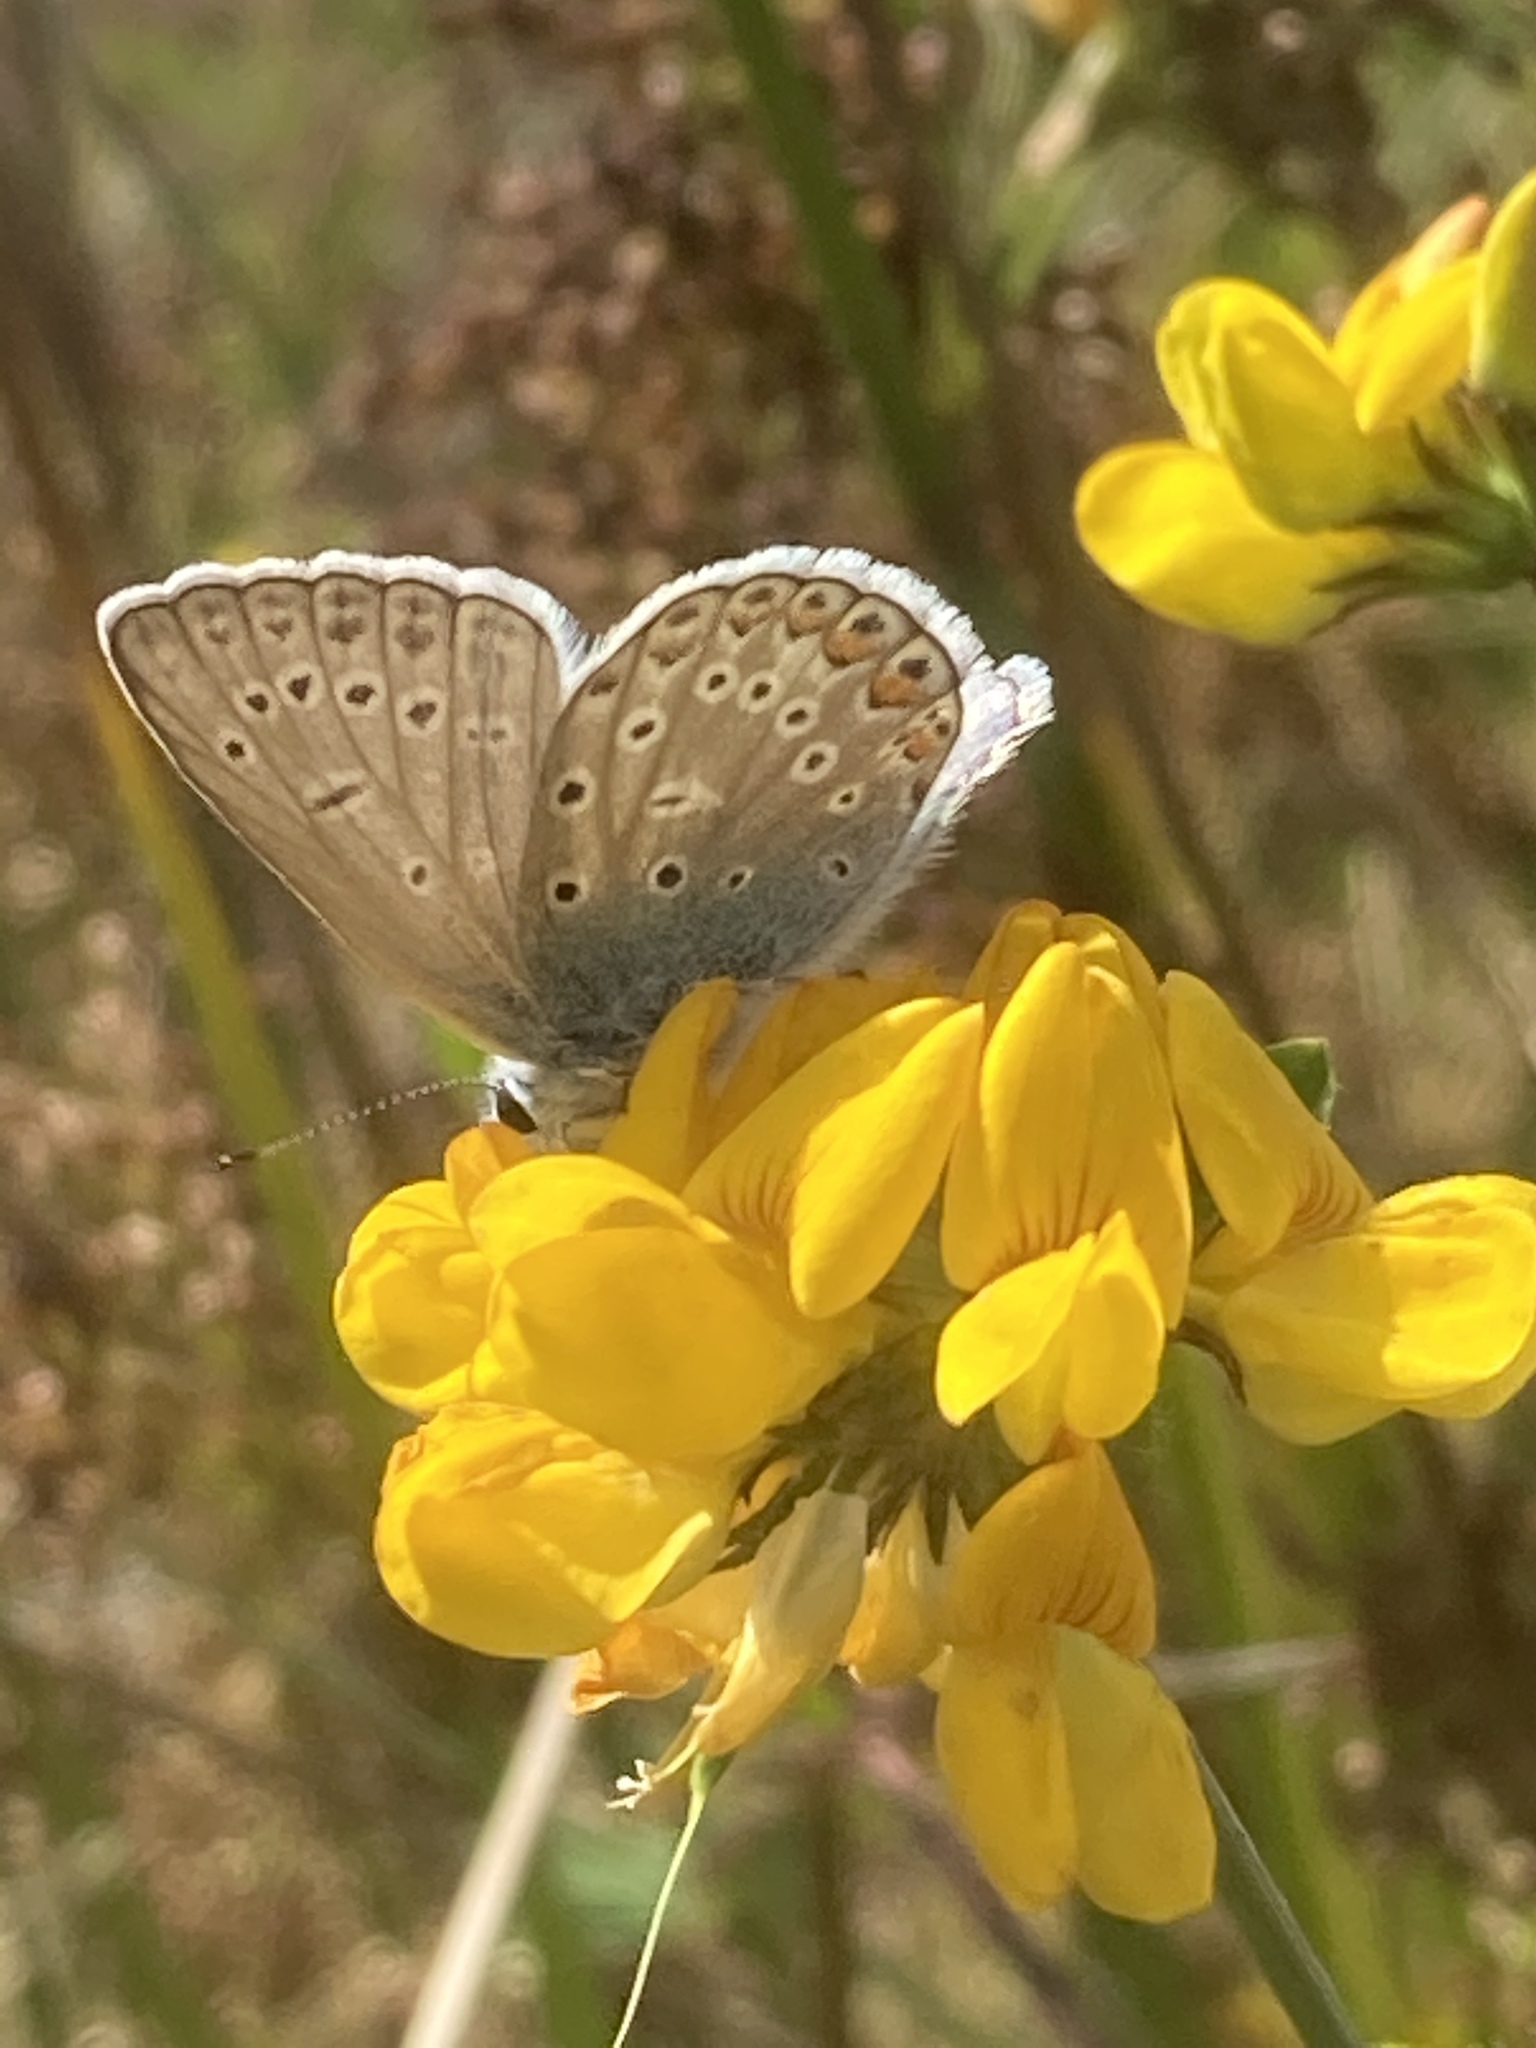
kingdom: Animalia
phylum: Arthropoda
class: Insecta
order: Lepidoptera
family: Lycaenidae
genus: Polyommatus
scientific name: Polyommatus icarus
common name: Common blue
